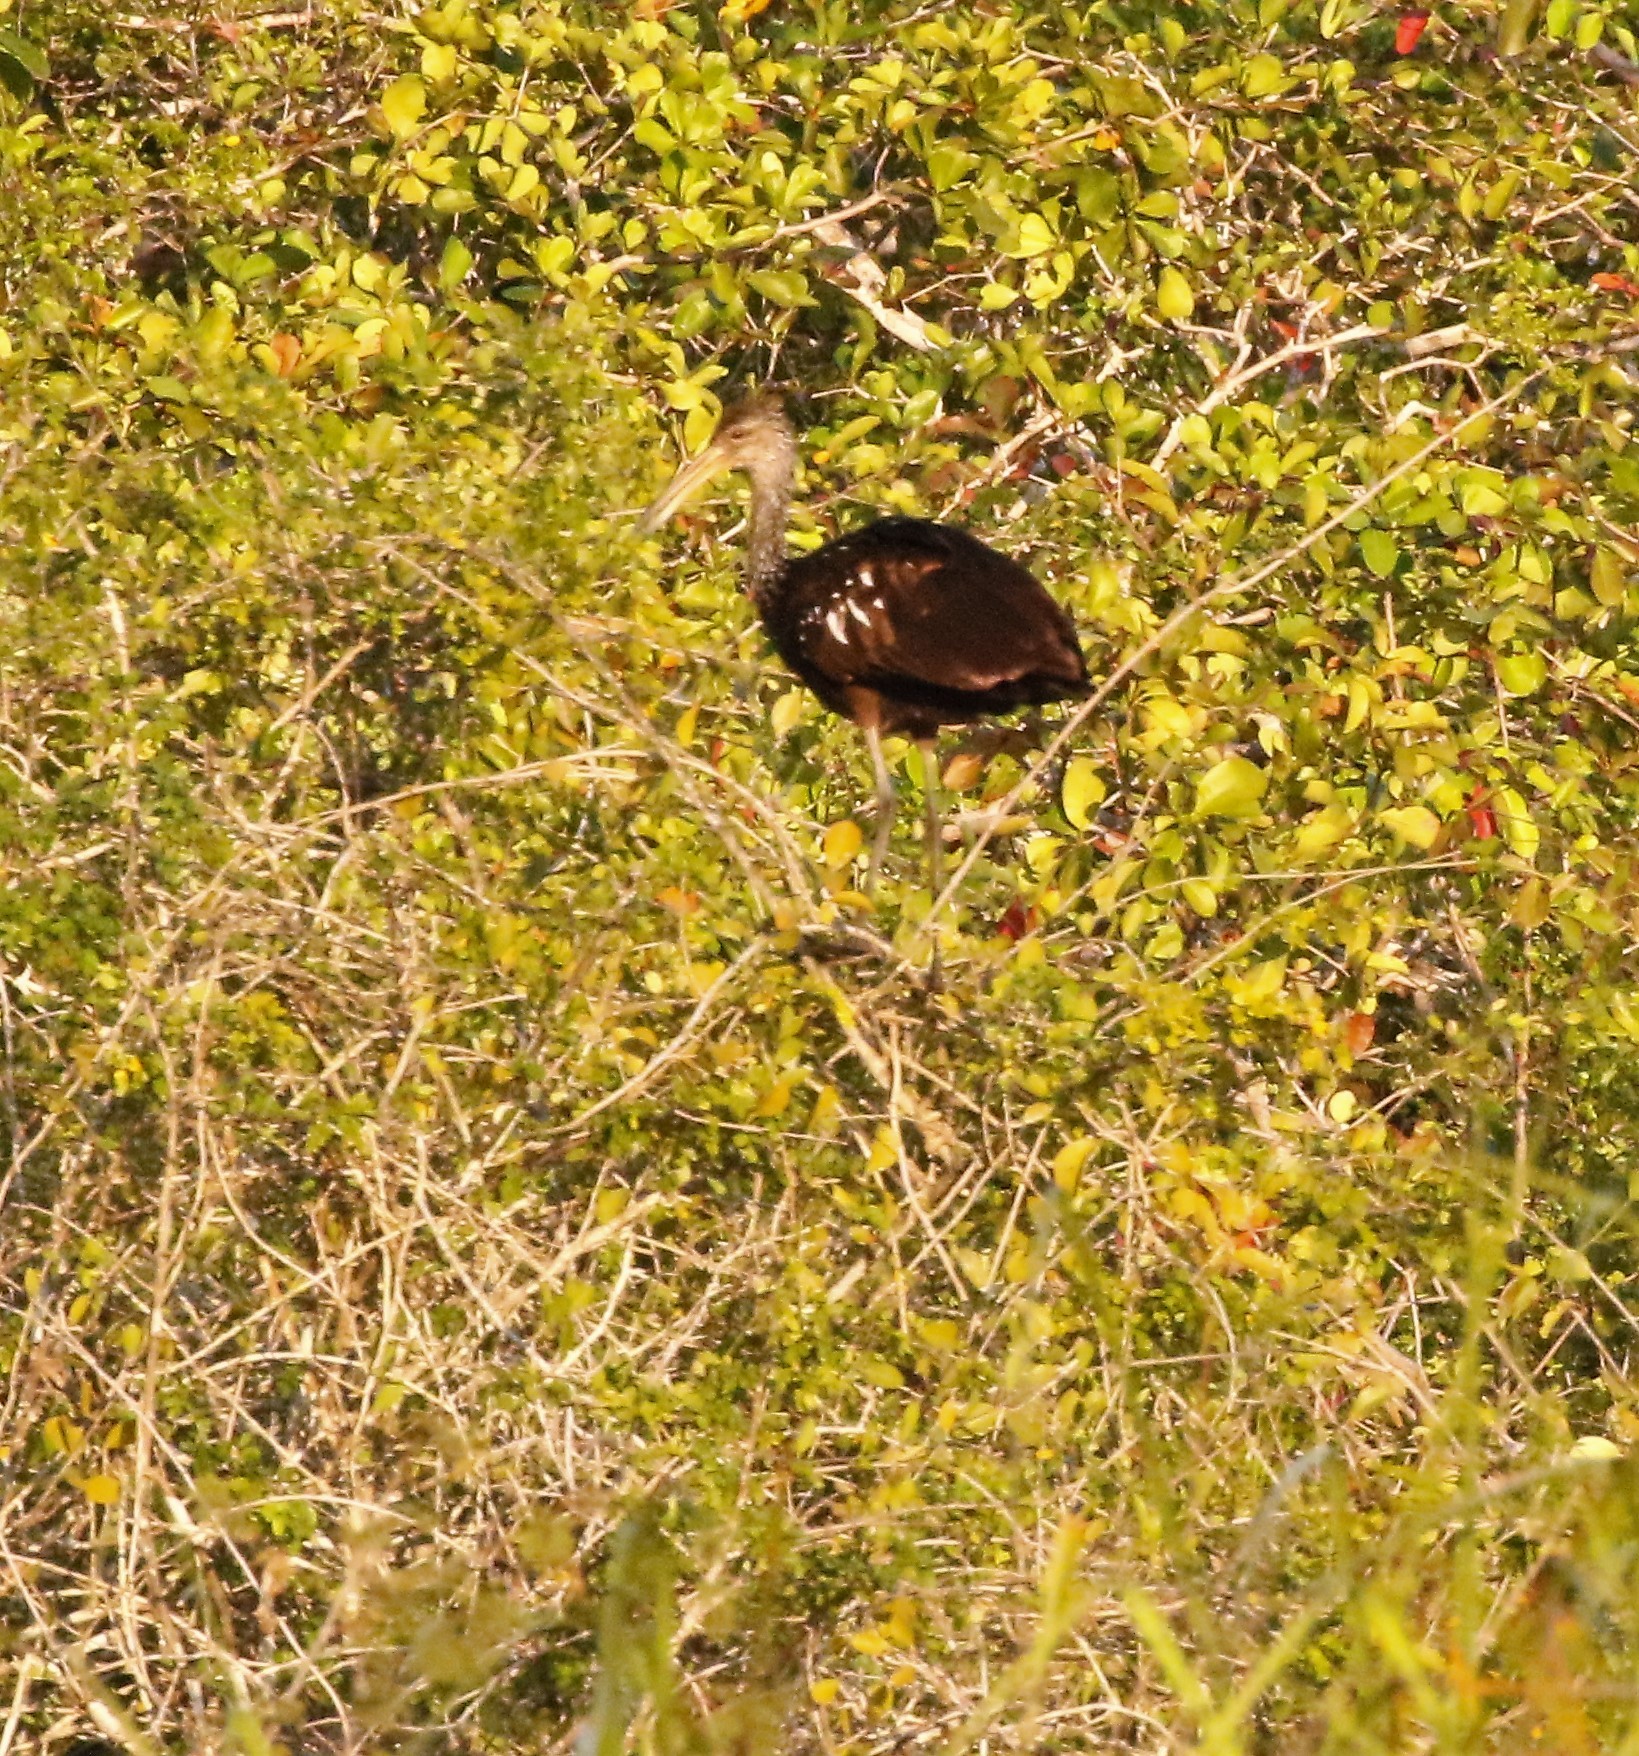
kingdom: Animalia
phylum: Chordata
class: Aves
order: Gruiformes
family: Aramidae
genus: Aramus
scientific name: Aramus guarauna
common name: Limpkin
